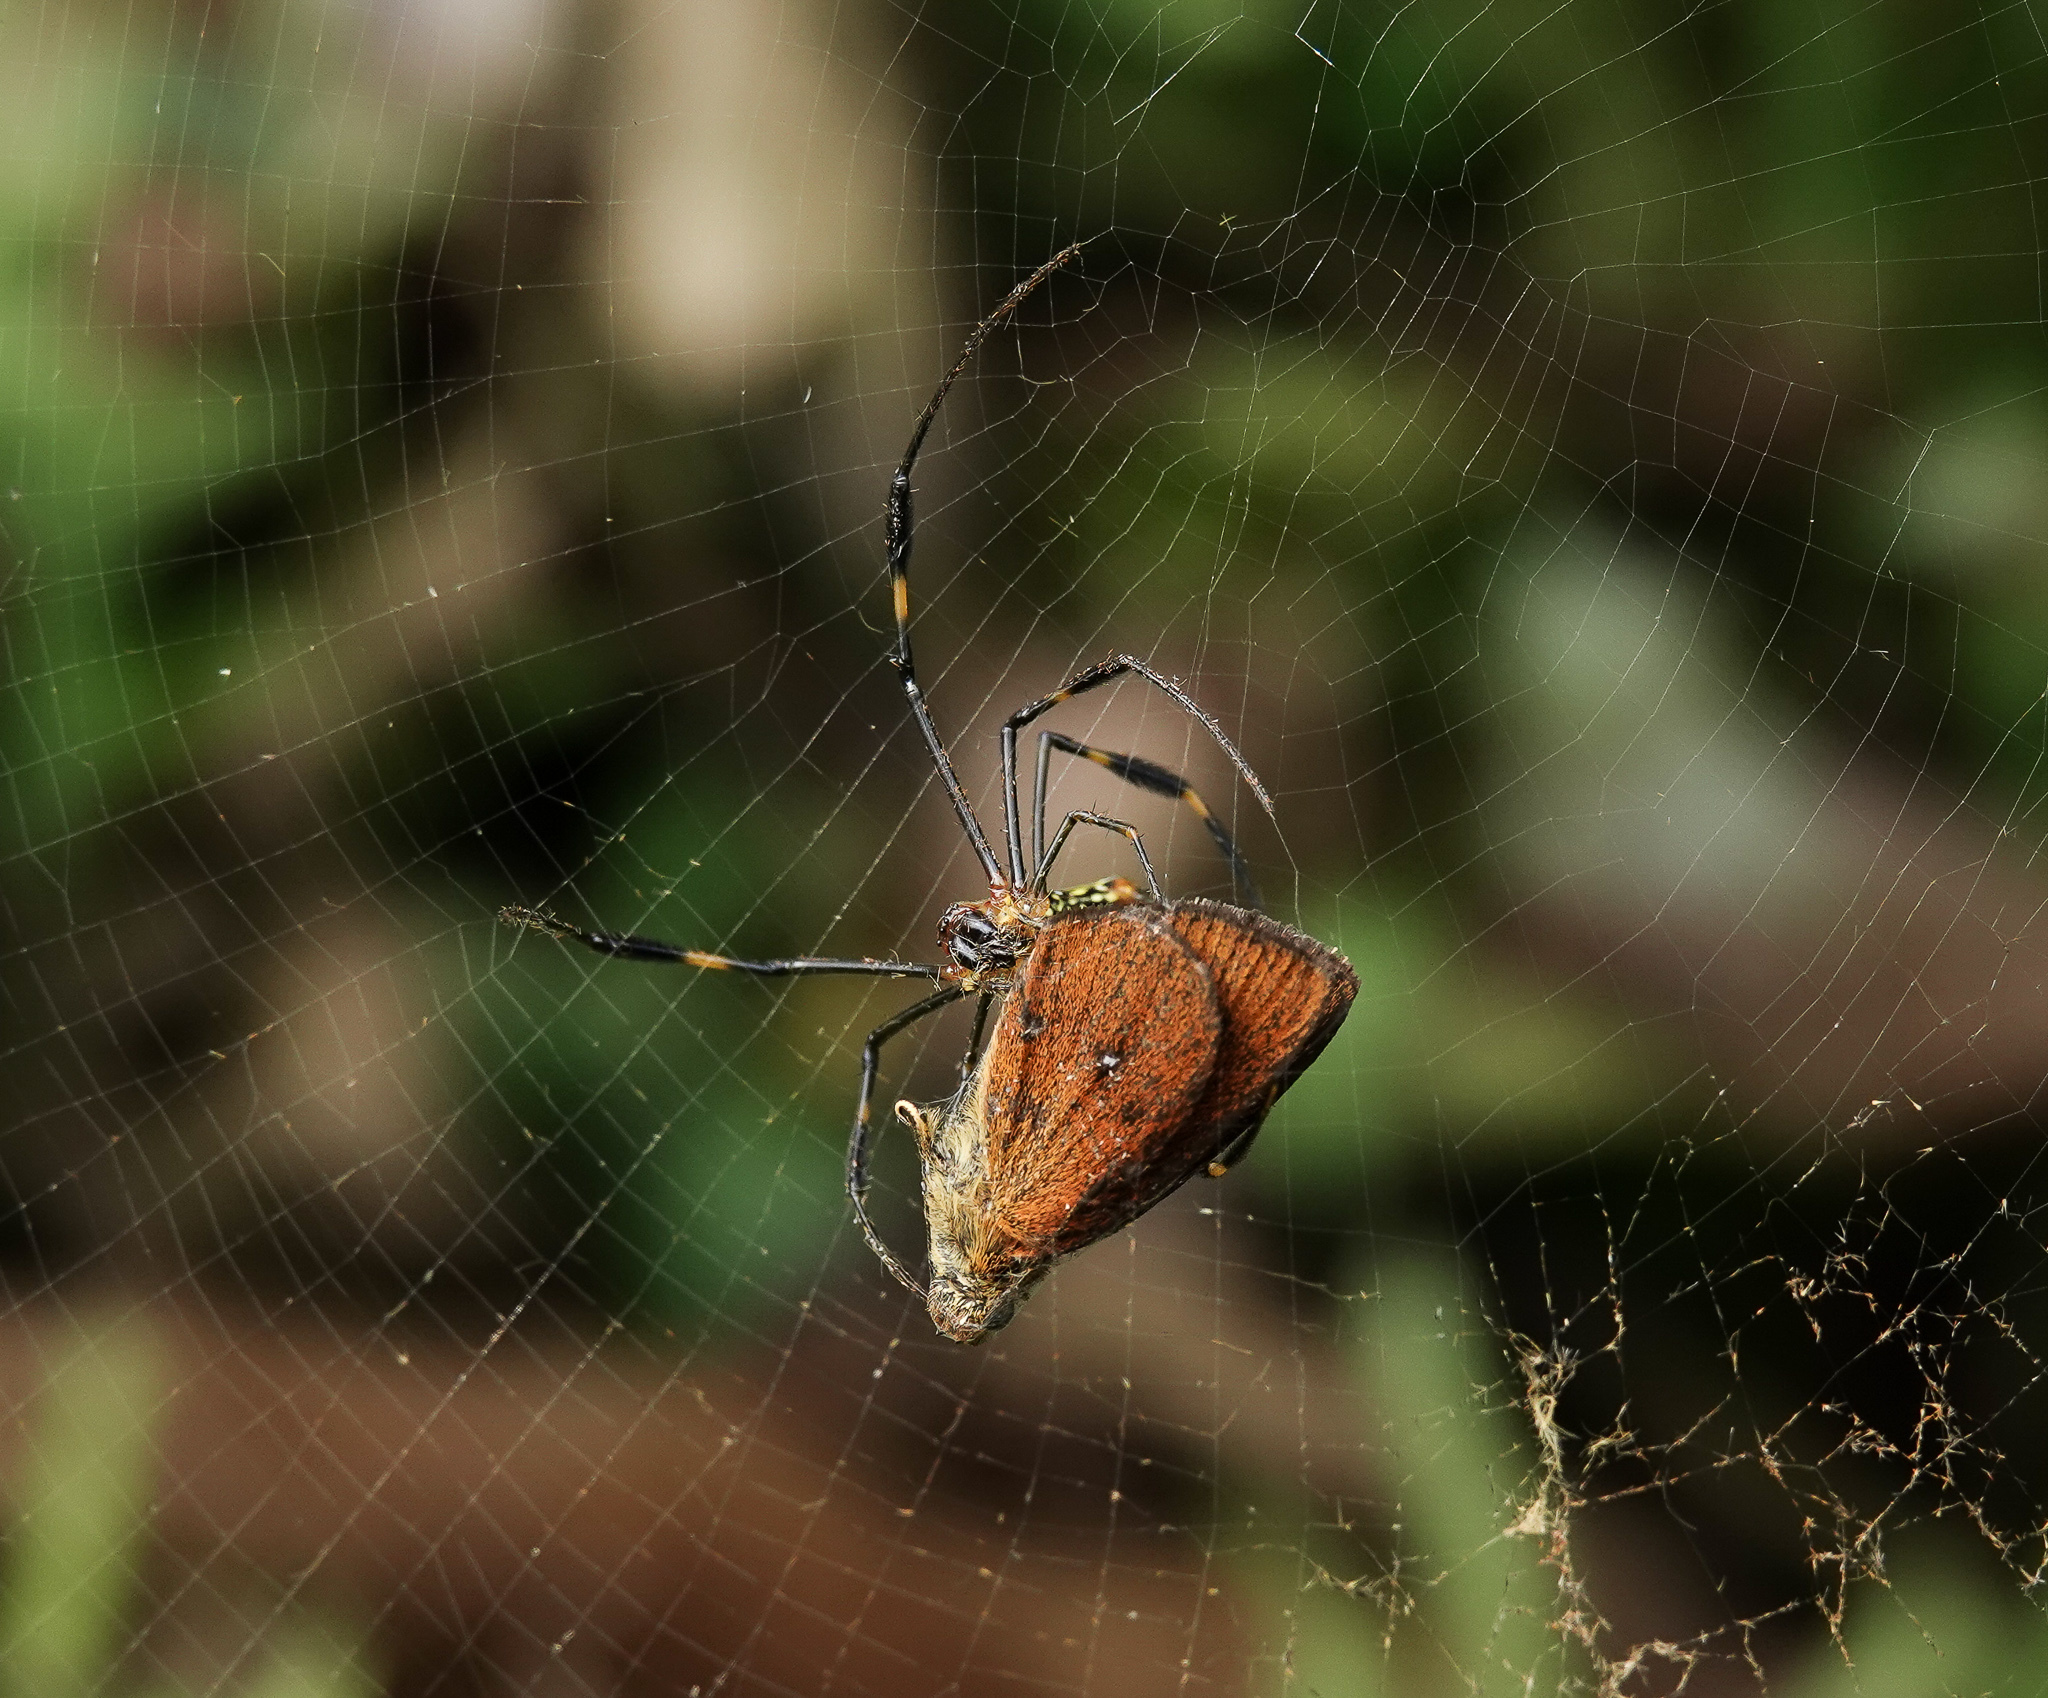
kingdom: Animalia
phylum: Arthropoda
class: Arachnida
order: Araneae
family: Araneidae
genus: Nephila
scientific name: Nephila pilipes
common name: Giant golden orb weaver
